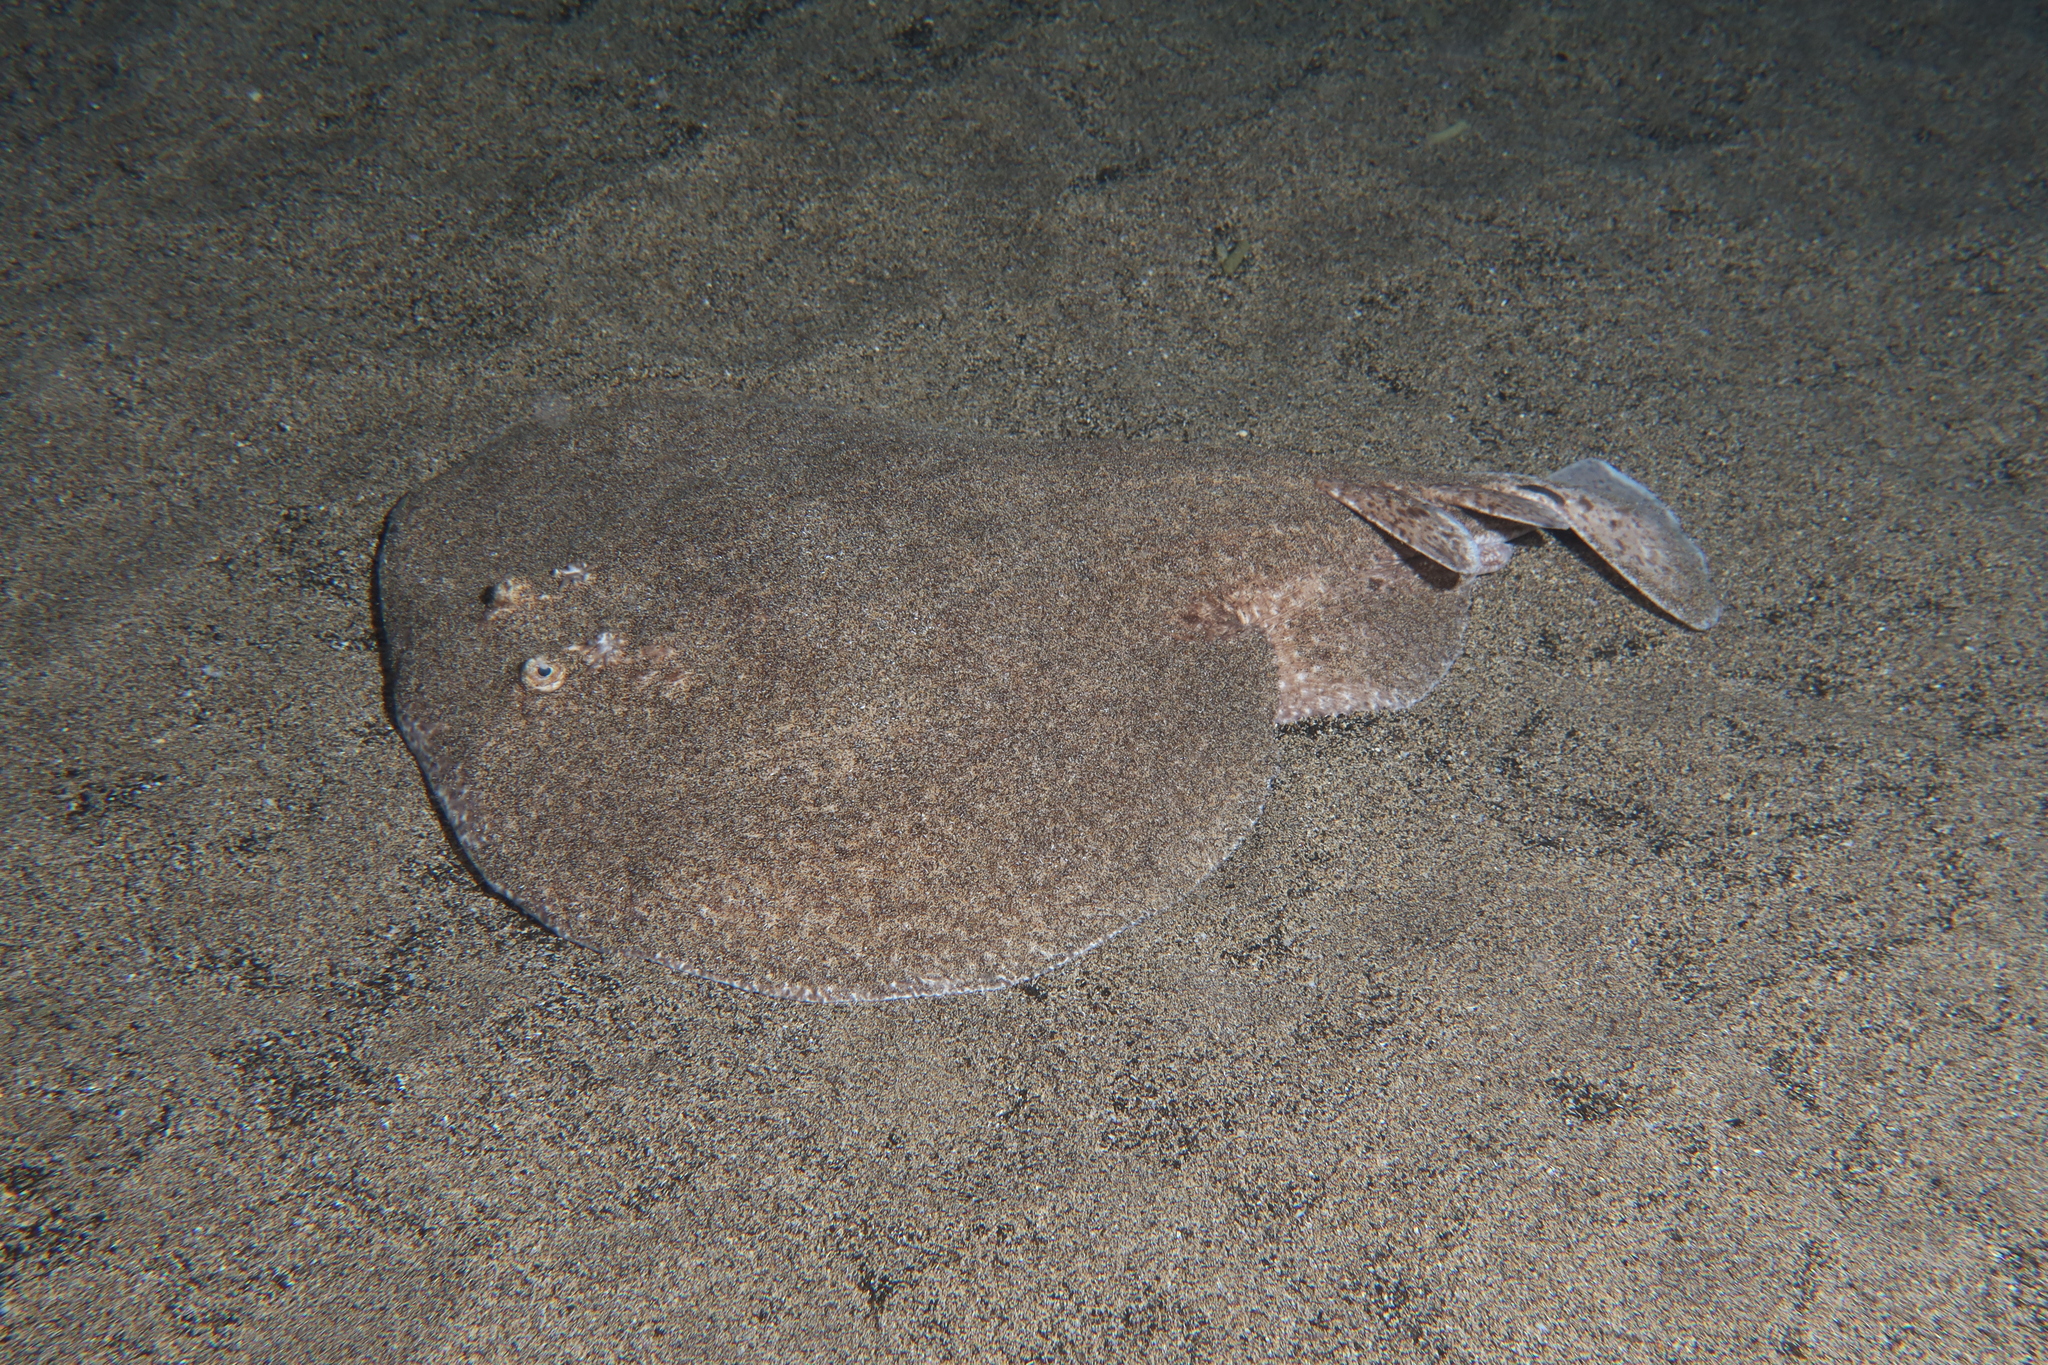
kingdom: Animalia
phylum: Chordata
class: Elasmobranchii
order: Torpediniformes
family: Torpedinidae
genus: Torpedo
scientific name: Torpedo marmorata
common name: Marbled electric ray
